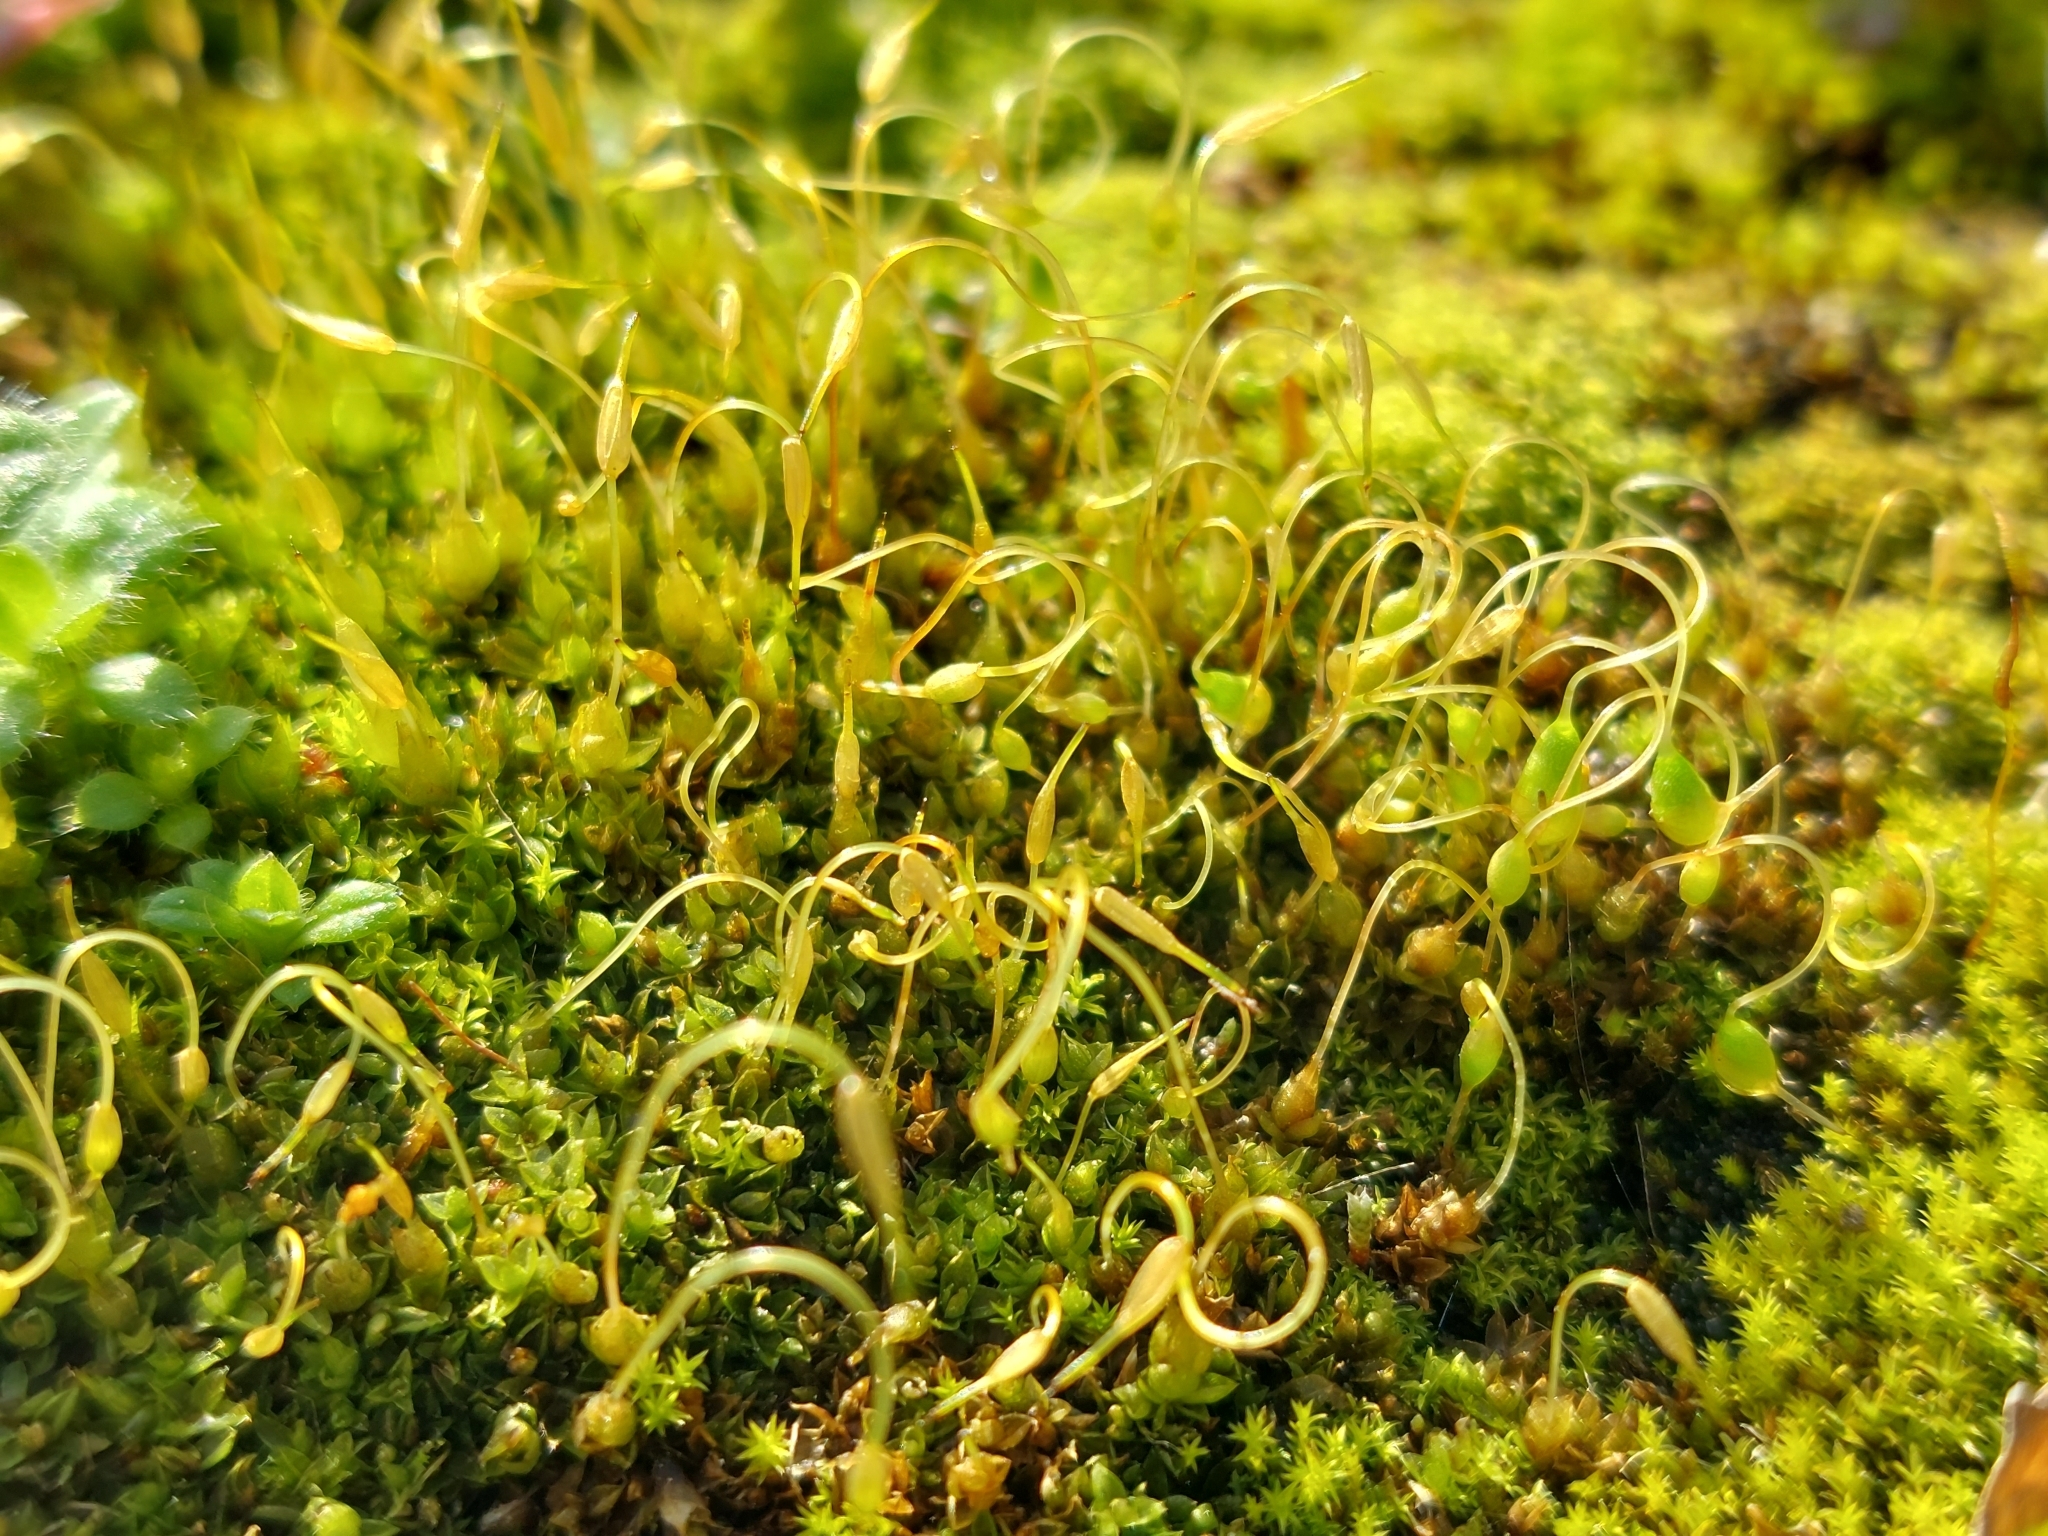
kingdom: Plantae
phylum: Bryophyta
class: Bryopsida
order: Funariales
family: Funariaceae
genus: Funaria
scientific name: Funaria hygrometrica
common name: Common cord moss
